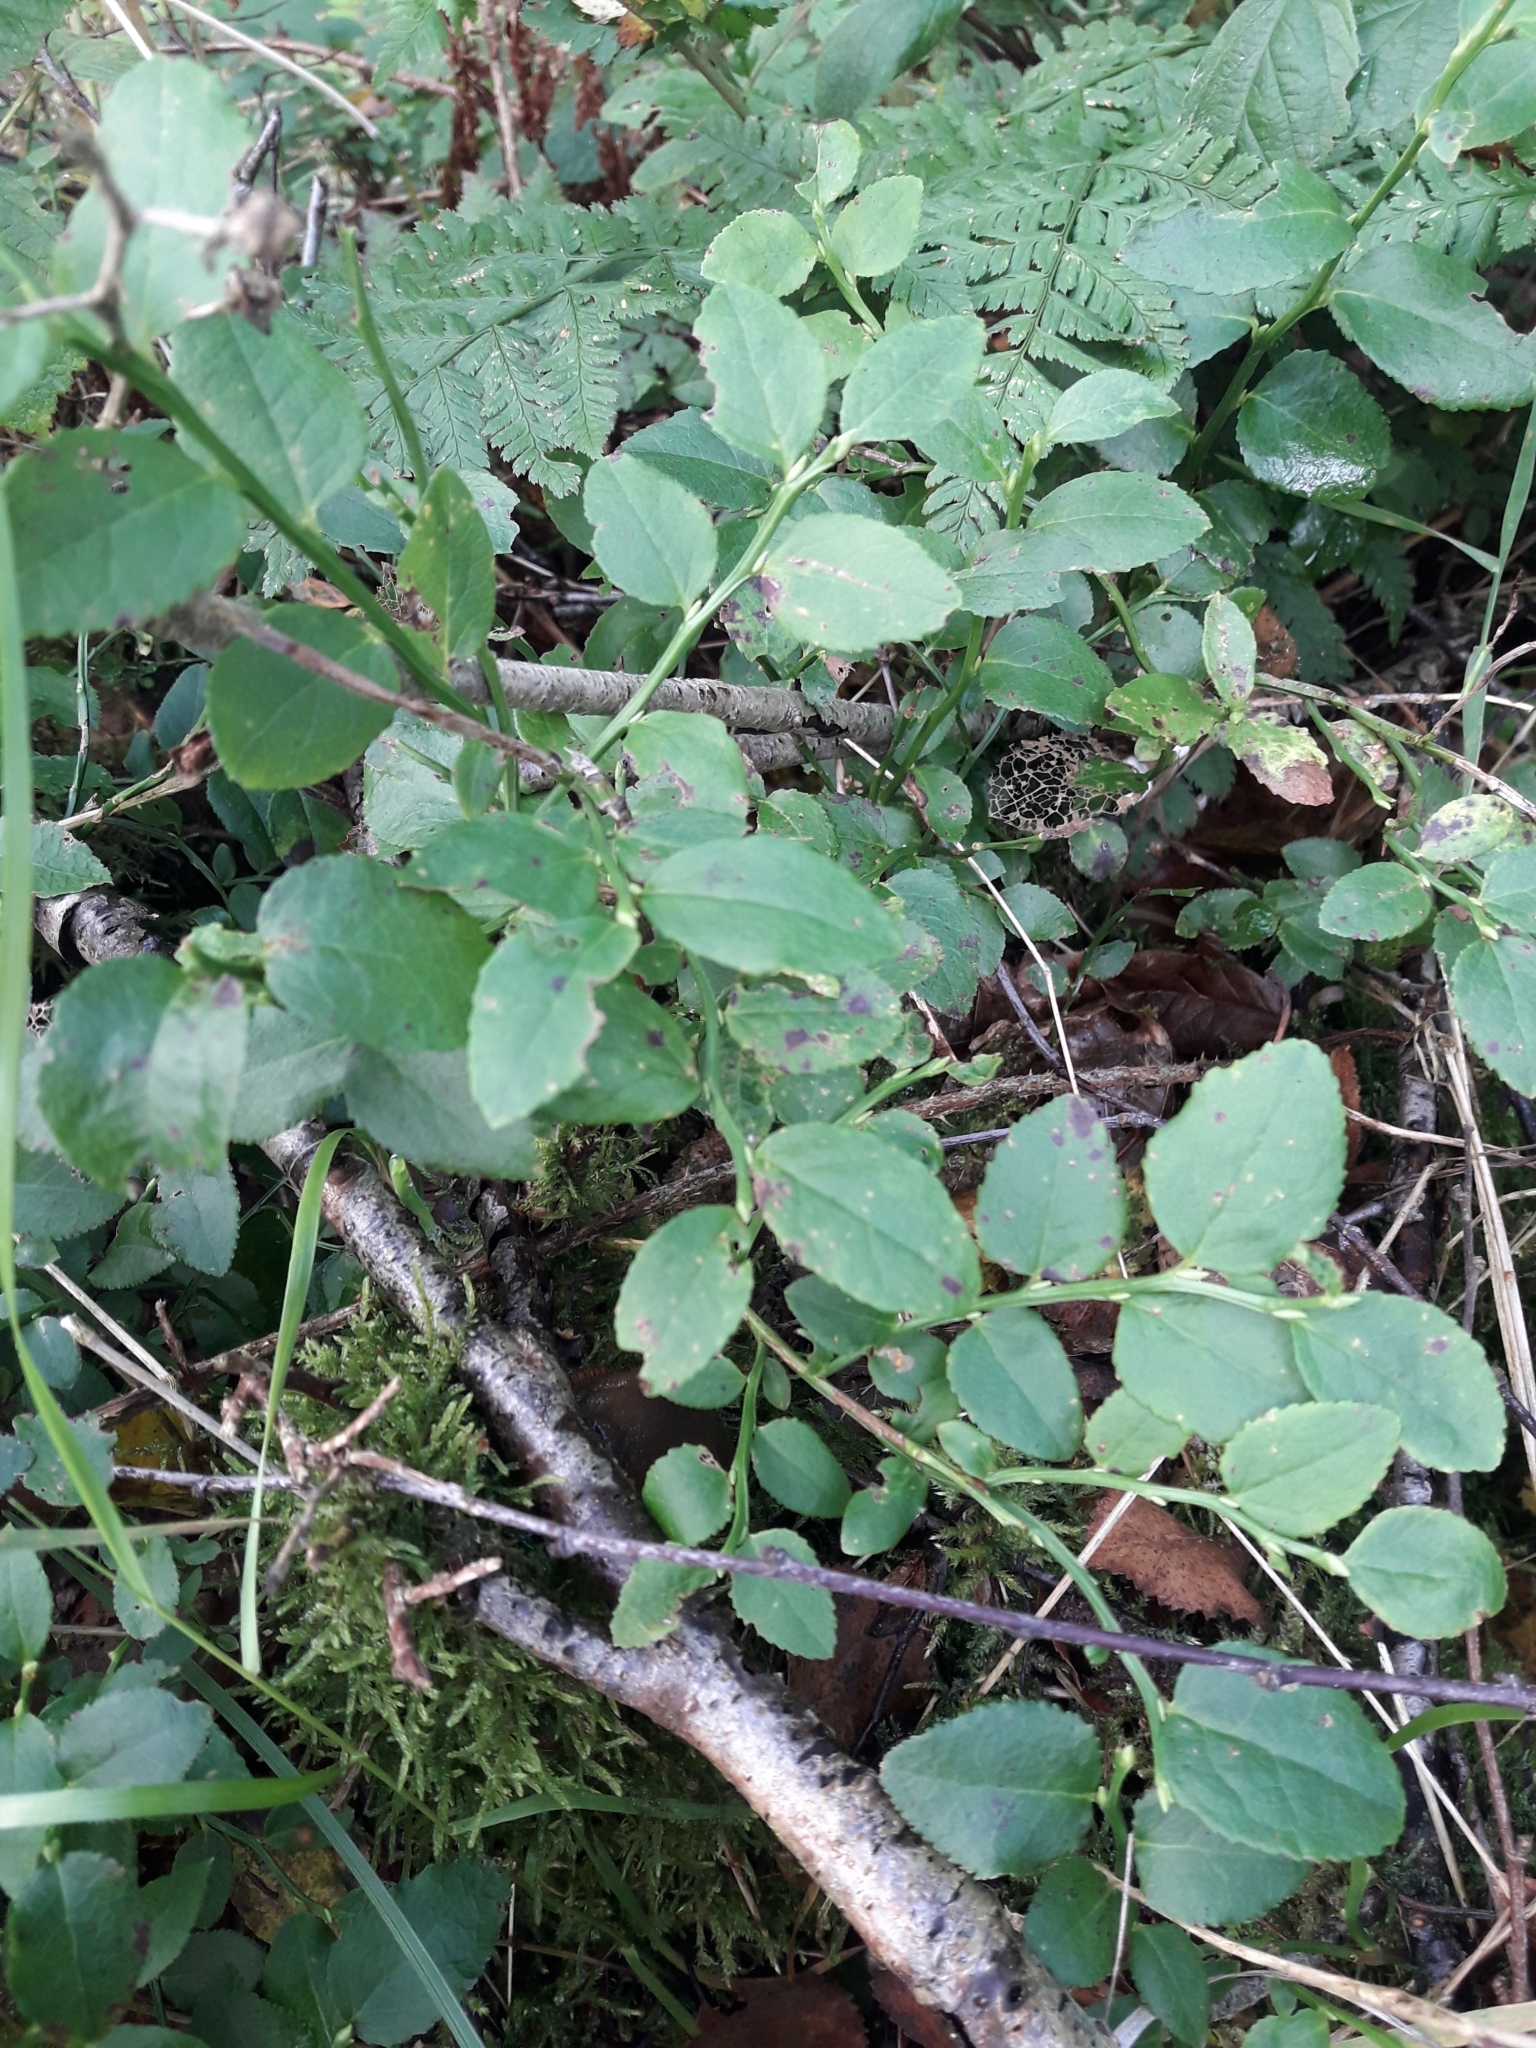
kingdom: Plantae
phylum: Tracheophyta
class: Magnoliopsida
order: Ericales
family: Ericaceae
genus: Vaccinium
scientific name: Vaccinium myrtillus
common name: Bilberry
